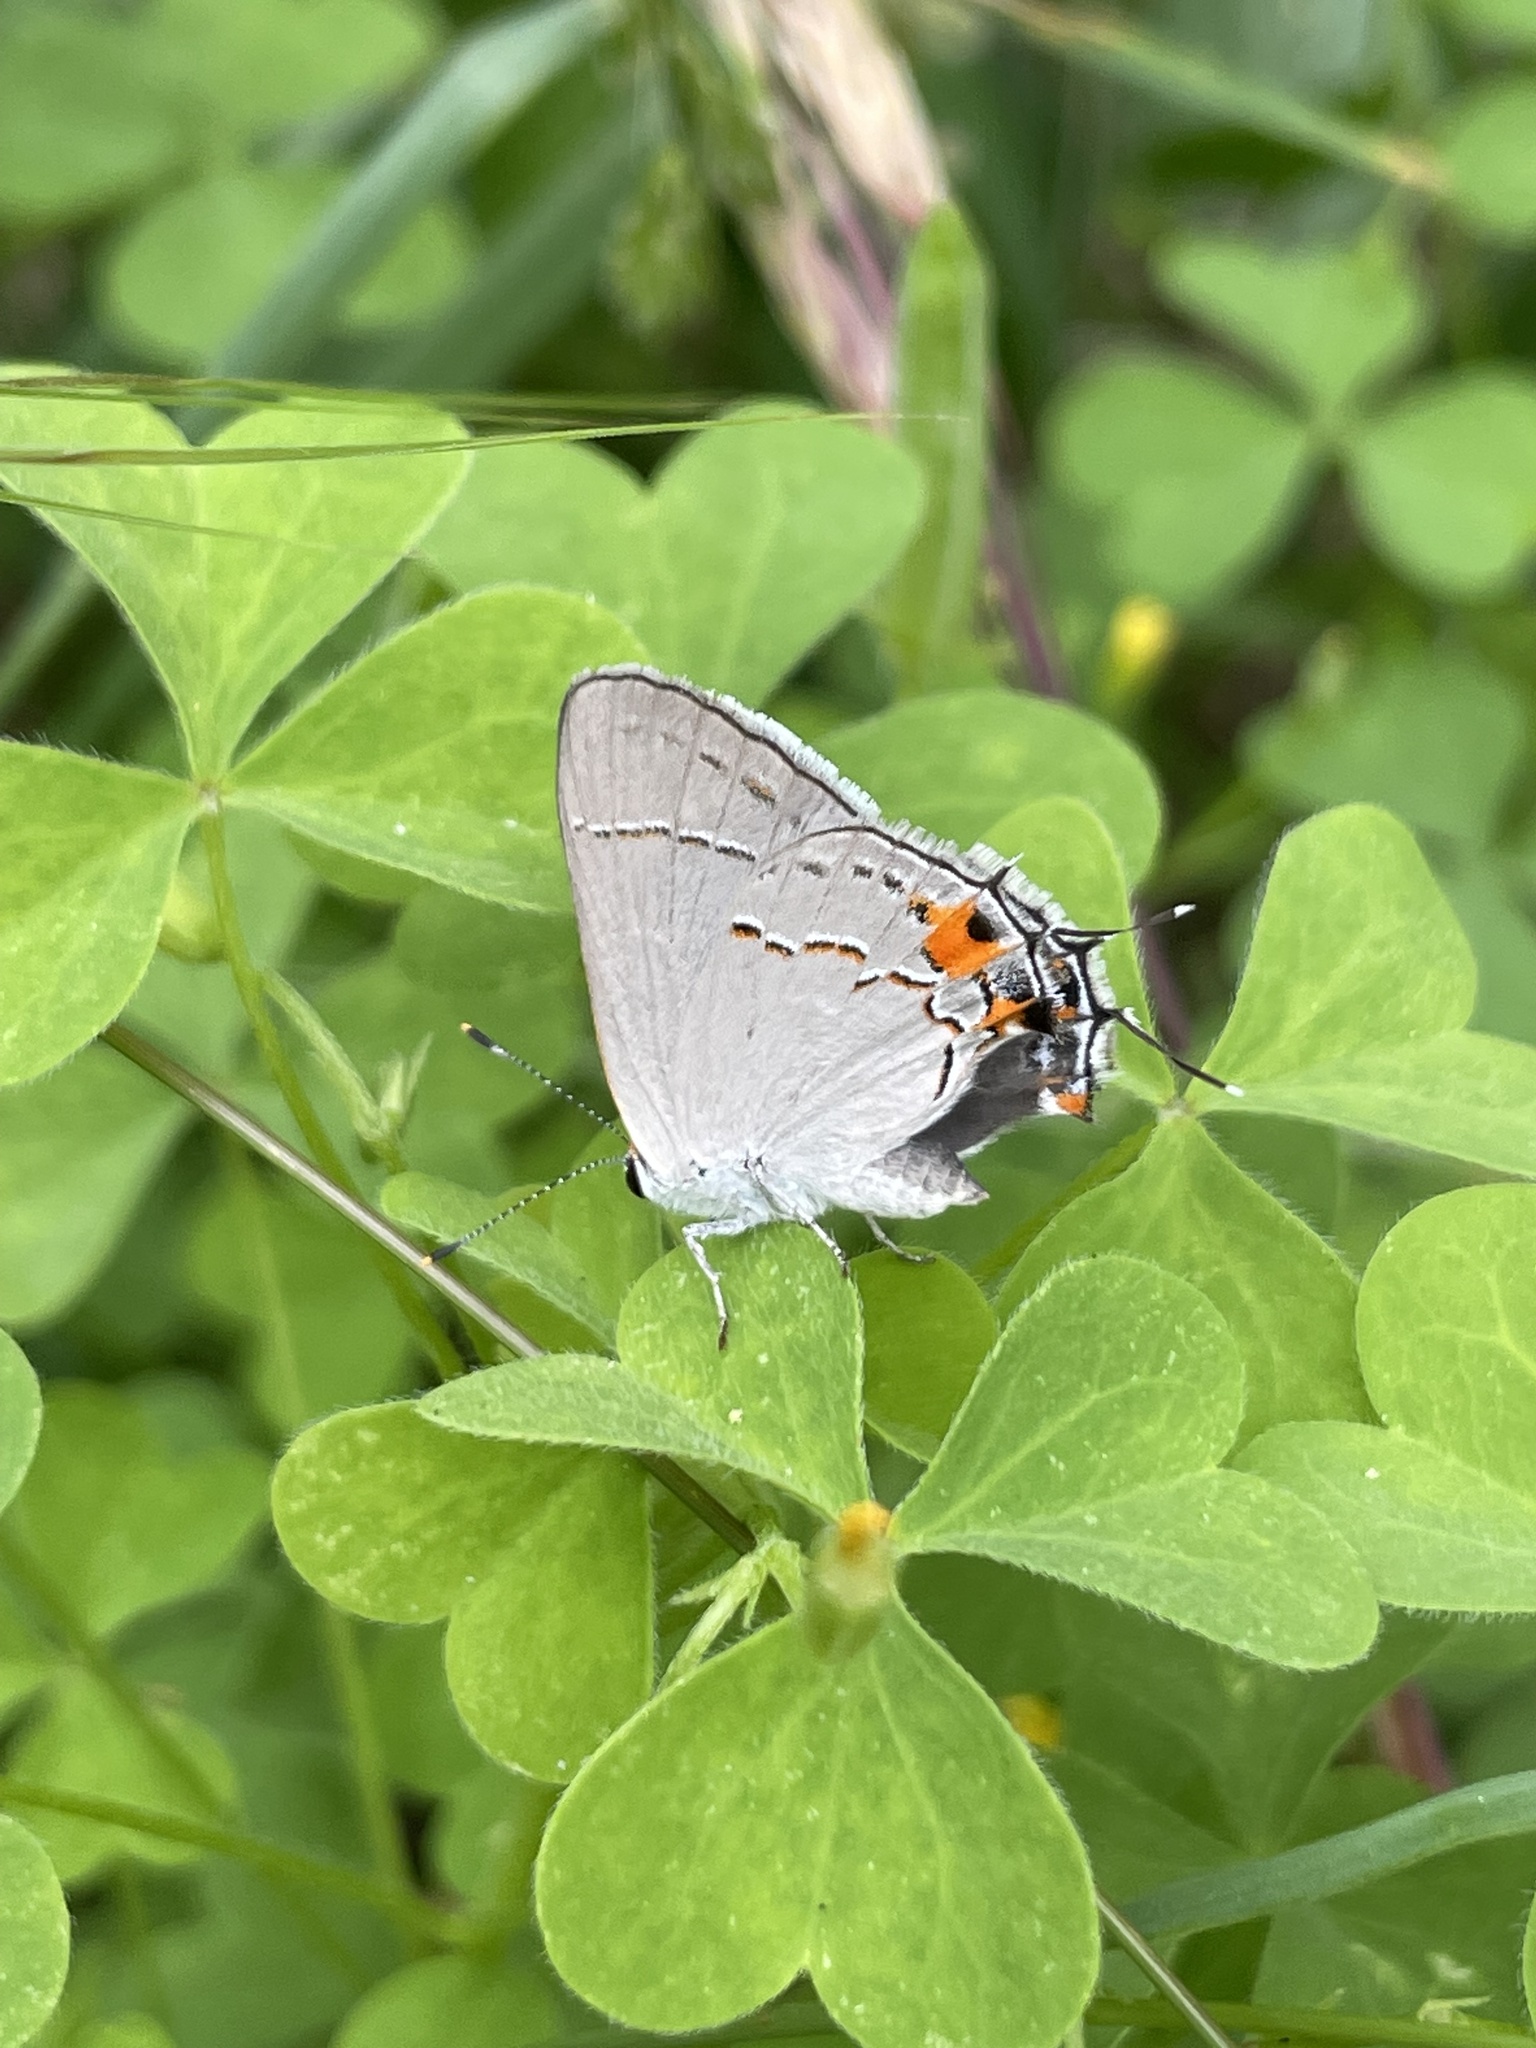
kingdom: Animalia
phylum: Arthropoda
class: Insecta
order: Lepidoptera
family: Lycaenidae
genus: Strymon
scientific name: Strymon melinus
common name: Gray hairstreak
